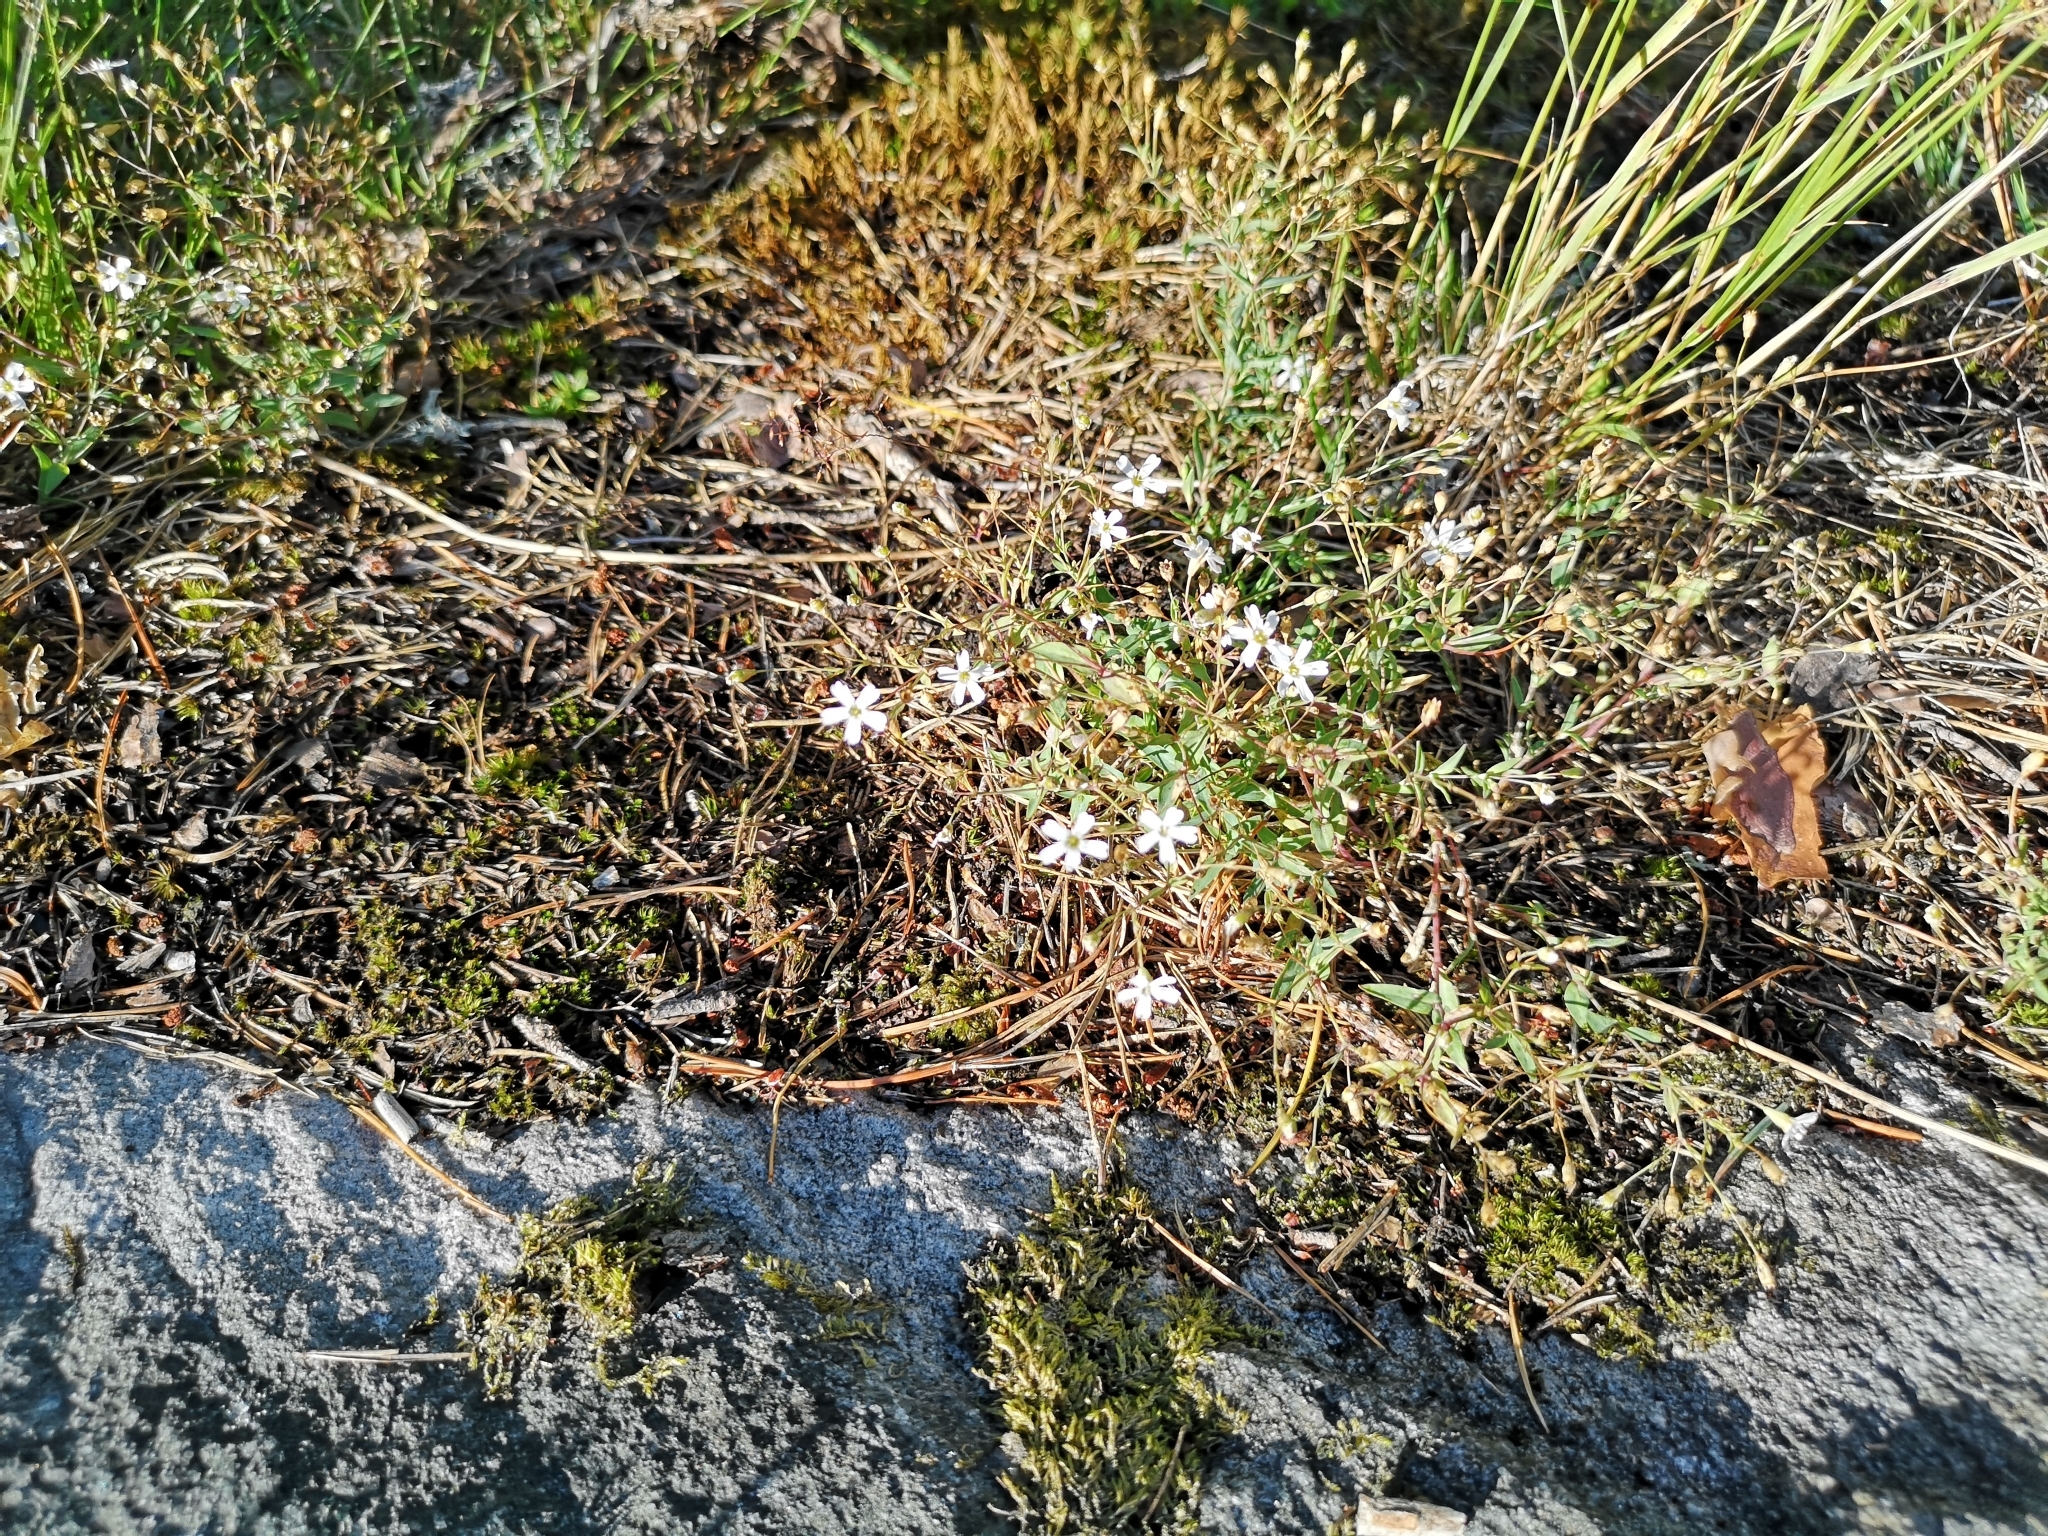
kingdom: Plantae
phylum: Tracheophyta
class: Magnoliopsida
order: Caryophyllales
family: Caryophyllaceae
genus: Atocion
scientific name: Atocion rupestre
